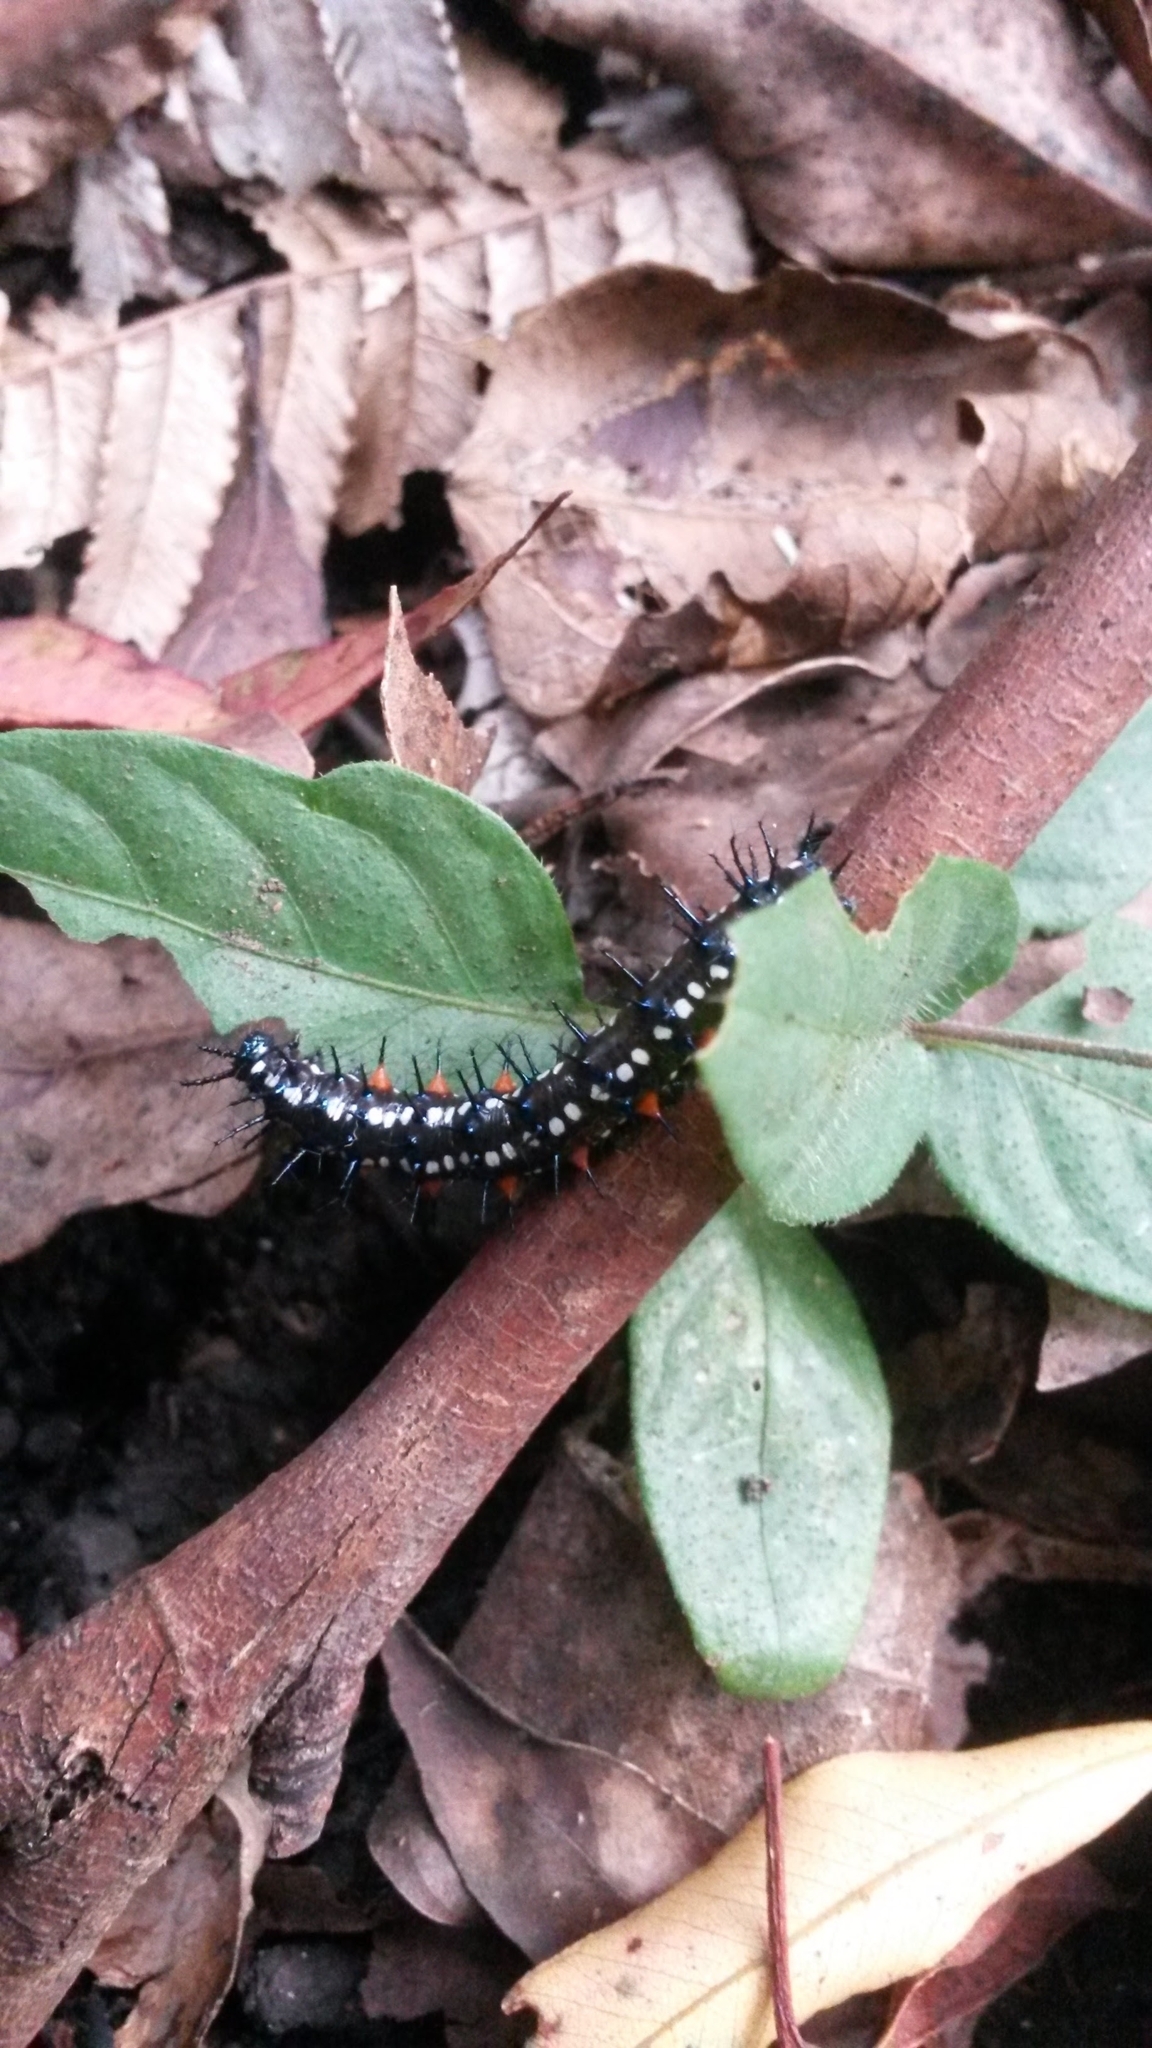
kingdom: Animalia
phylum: Arthropoda
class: Insecta
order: Lepidoptera
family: Nymphalidae
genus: Doleschallia
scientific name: Doleschallia bisaltide
